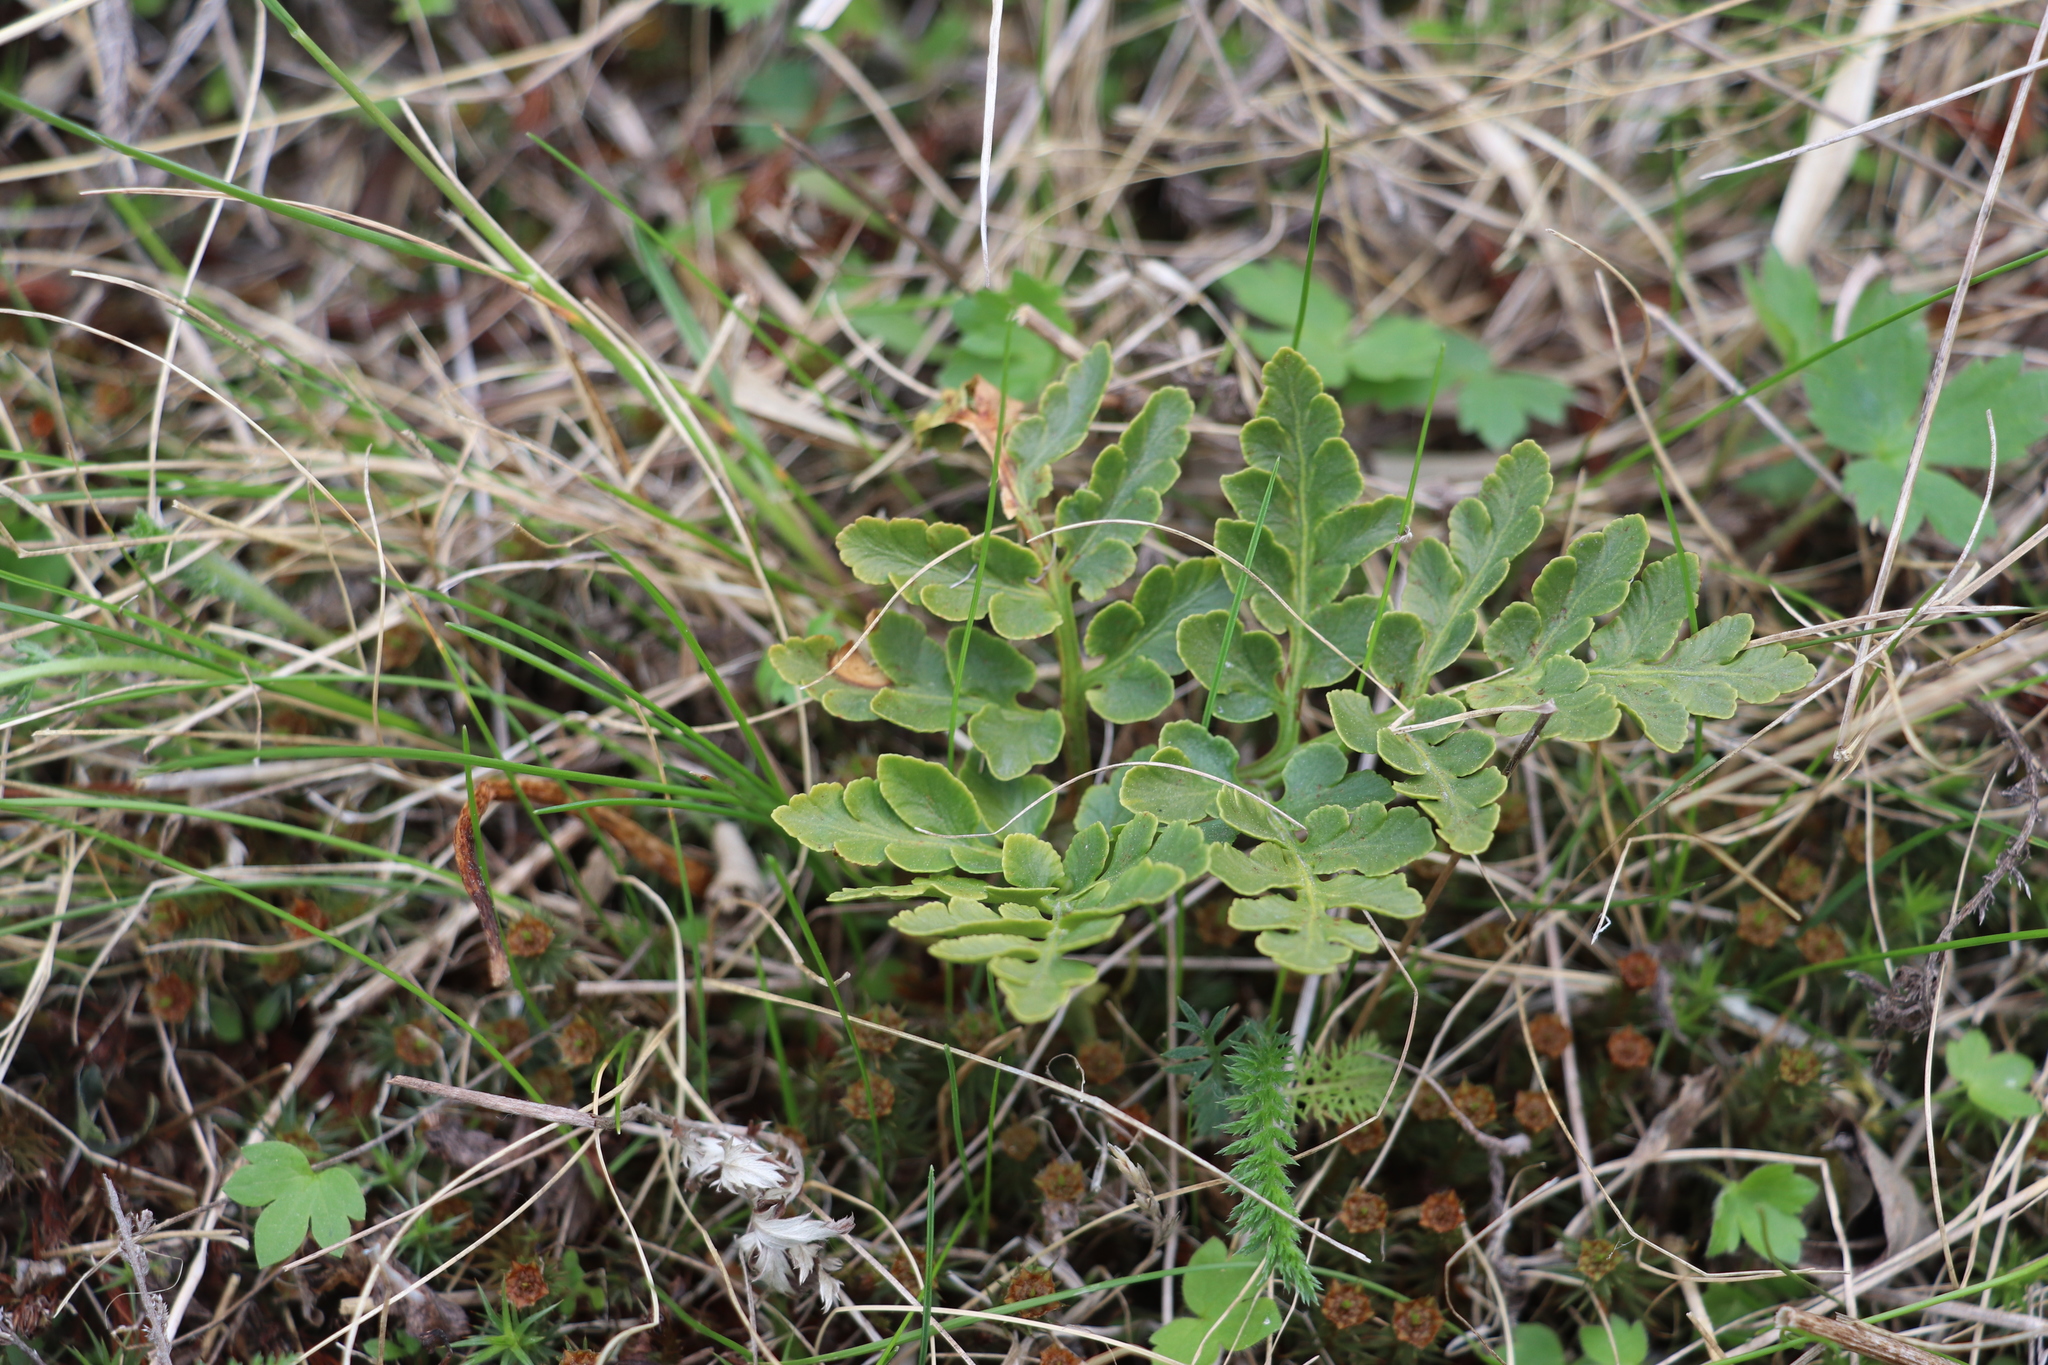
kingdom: Plantae
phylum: Tracheophyta
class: Polypodiopsida
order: Ophioglossales
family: Ophioglossaceae
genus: Sceptridium
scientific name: Sceptridium multifidum
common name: Leathery grape fern
